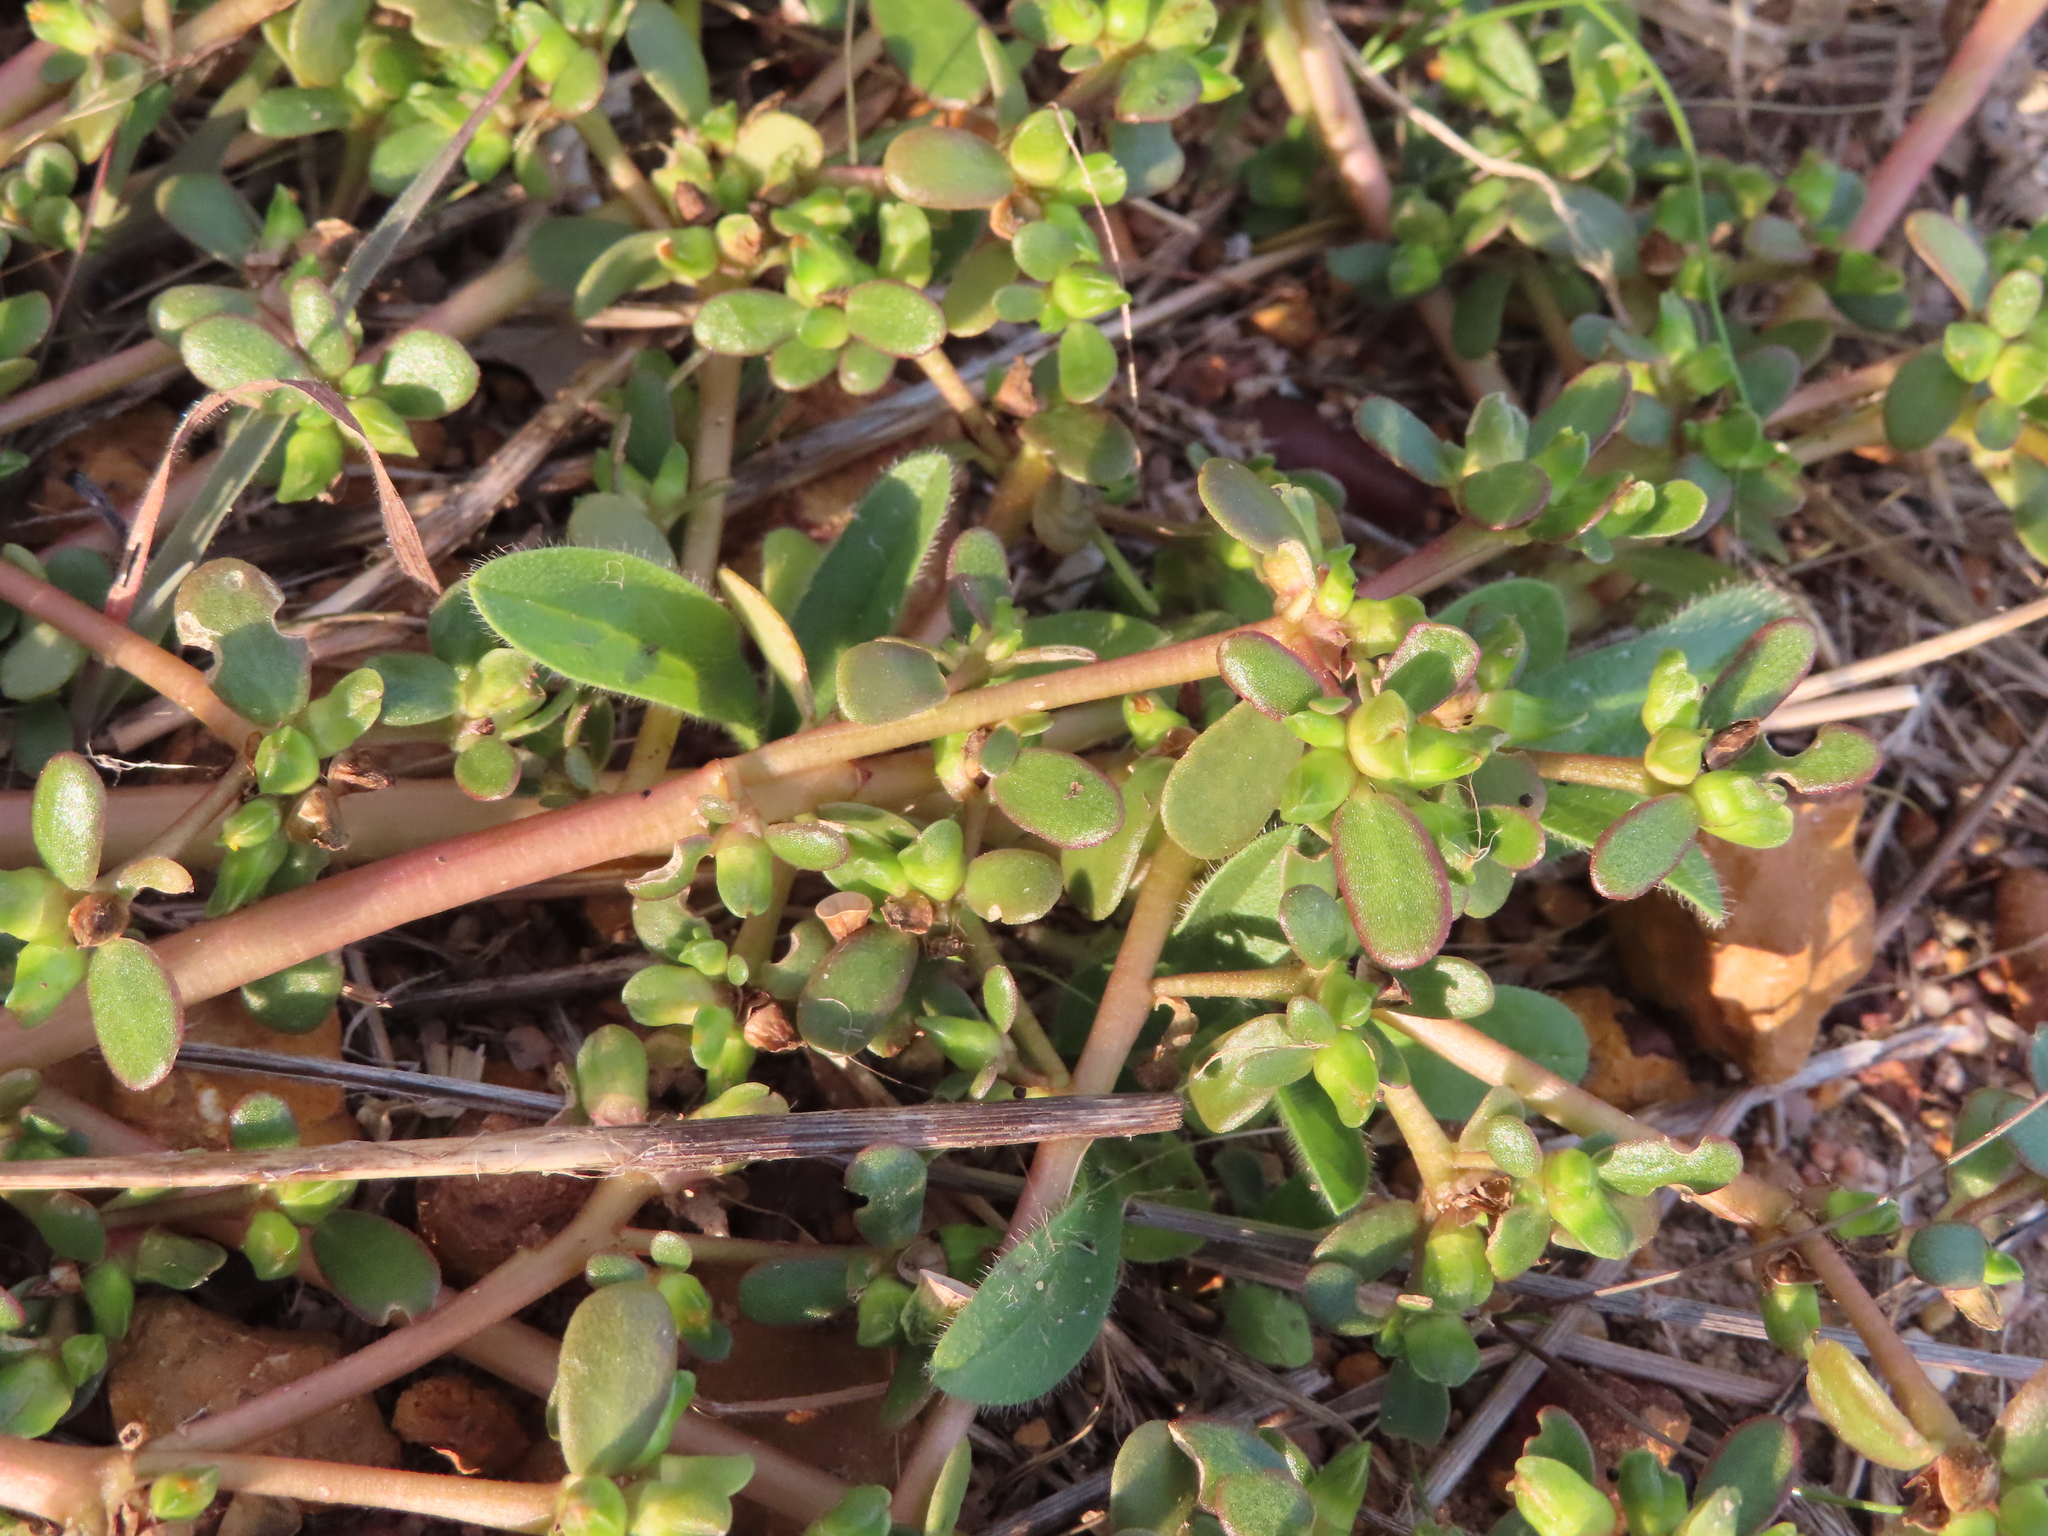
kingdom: Plantae
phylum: Tracheophyta
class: Magnoliopsida
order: Caryophyllales
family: Portulacaceae
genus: Portulaca
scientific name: Portulaca oleracea
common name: Common purslane
